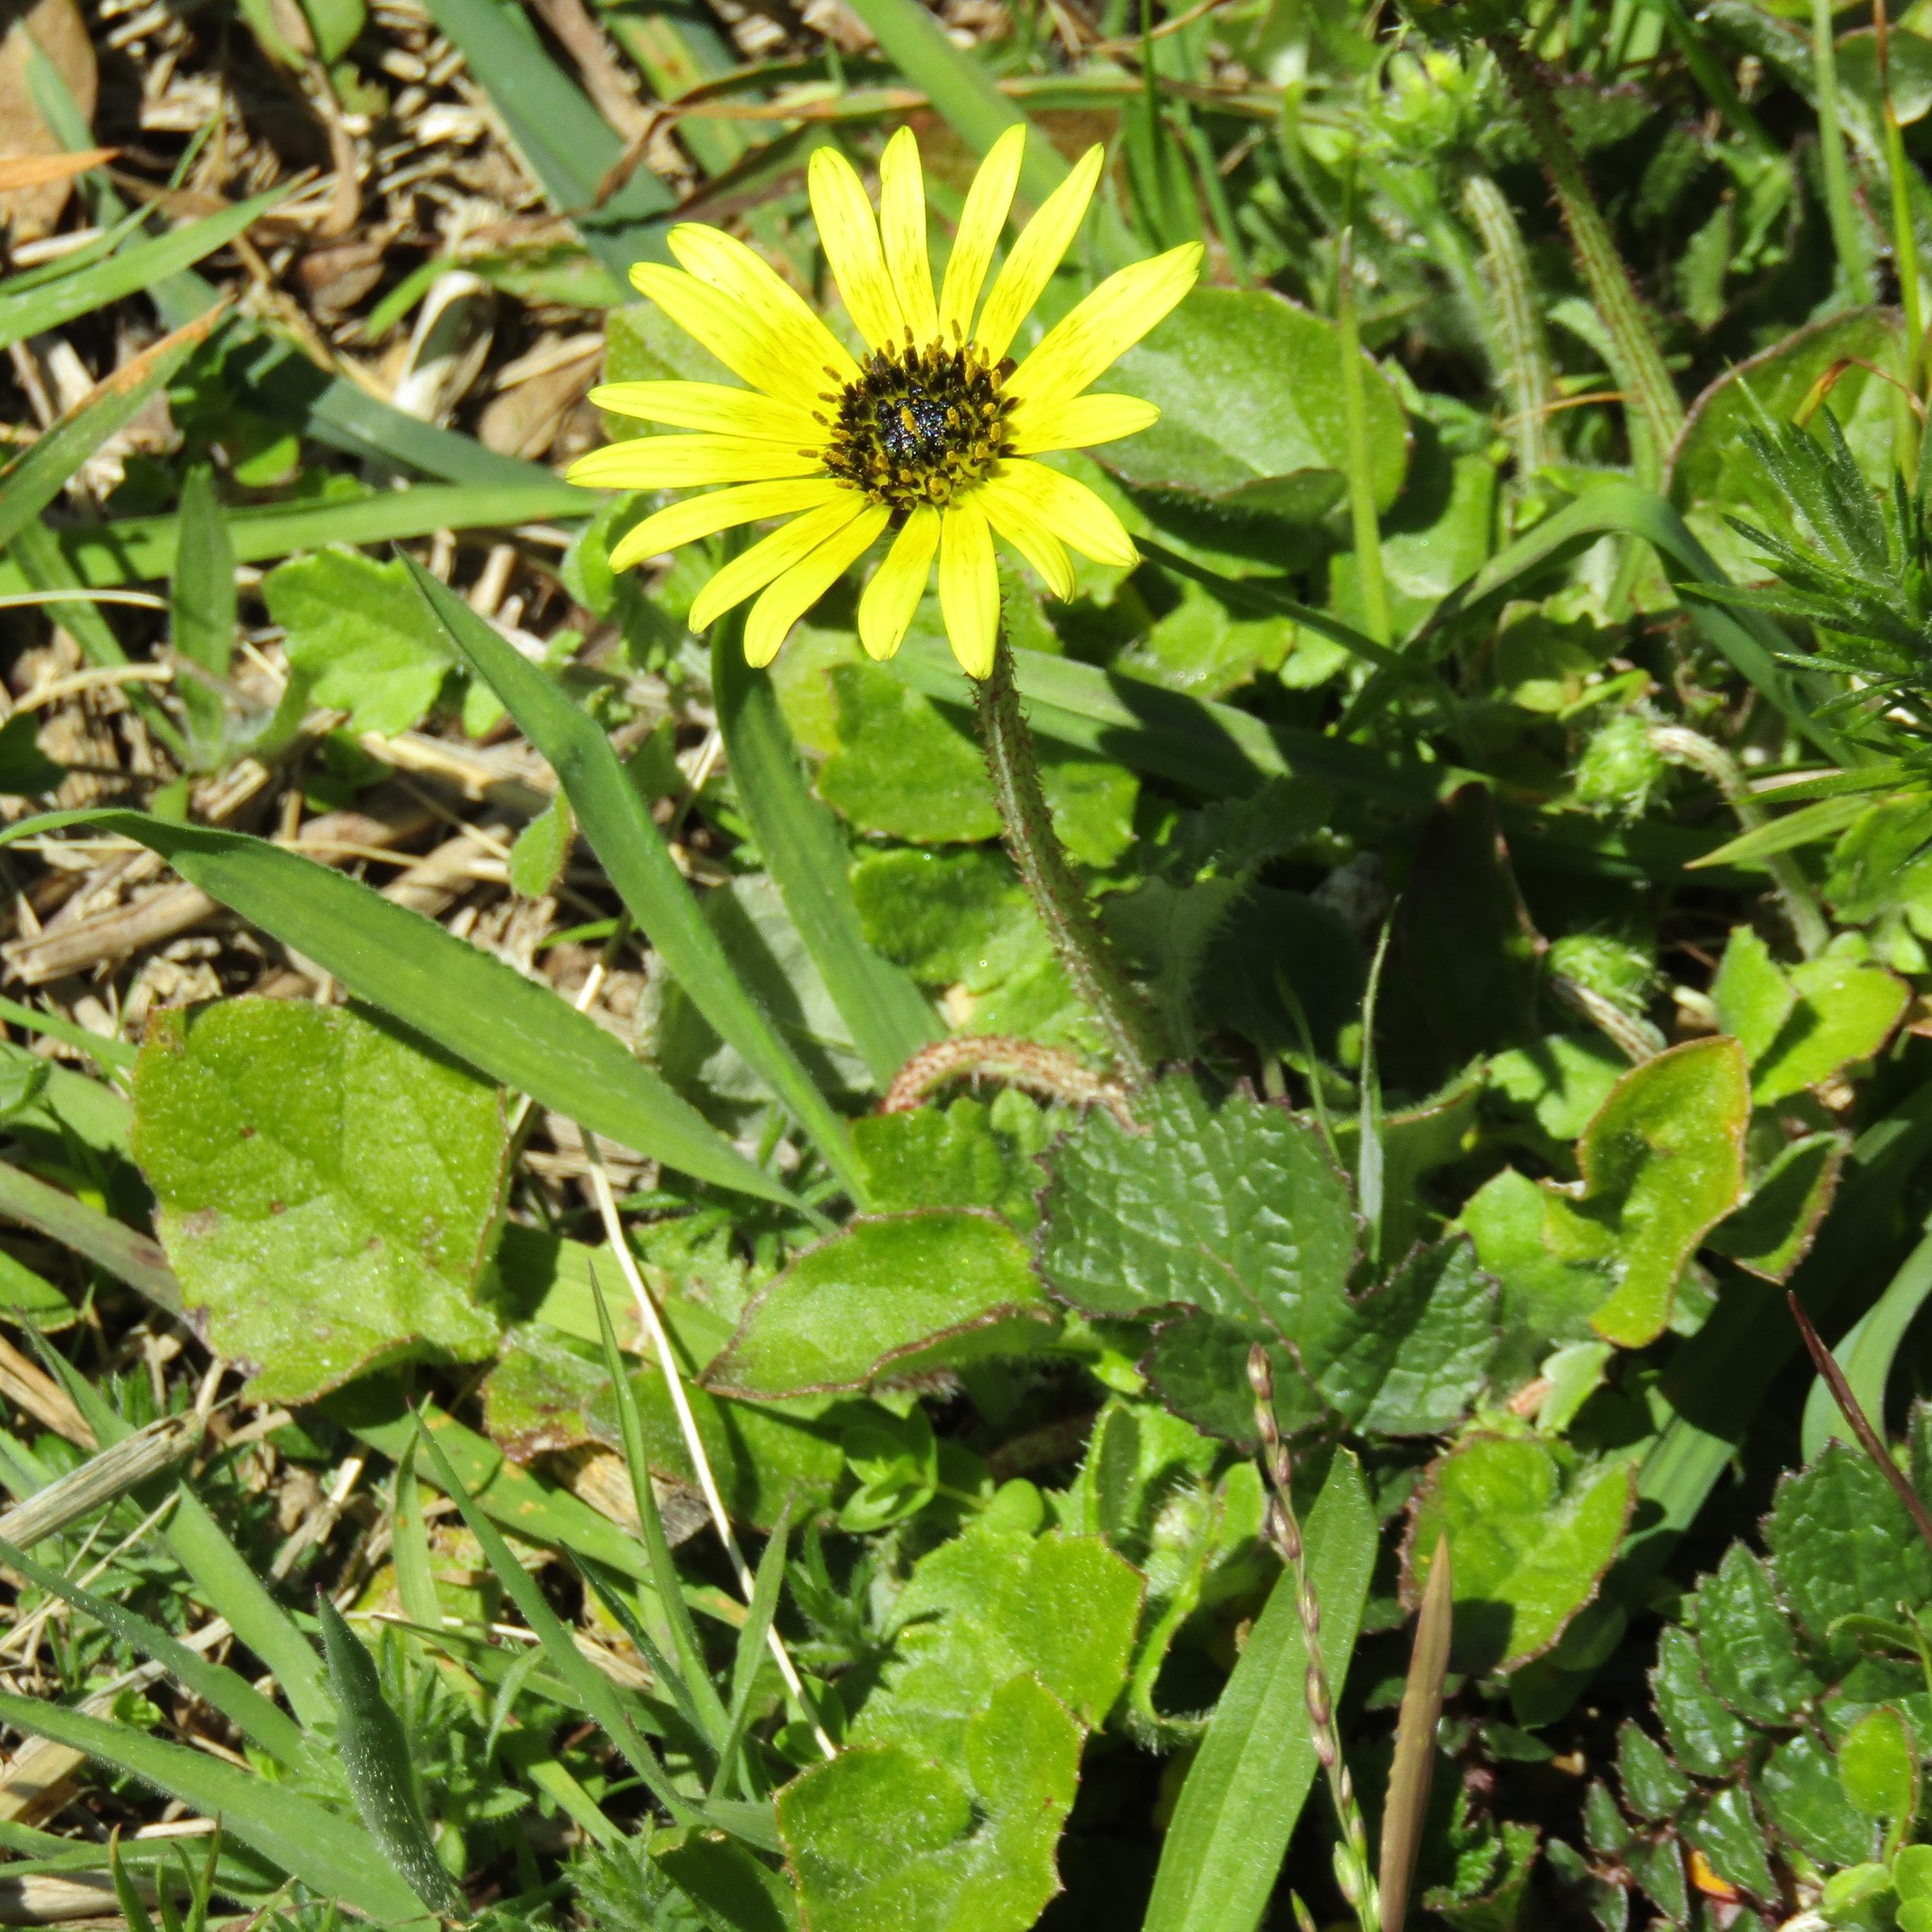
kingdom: Plantae
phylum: Tracheophyta
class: Magnoliopsida
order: Asterales
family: Asteraceae
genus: Arctotheca
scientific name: Arctotheca calendula
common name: Capeweed
